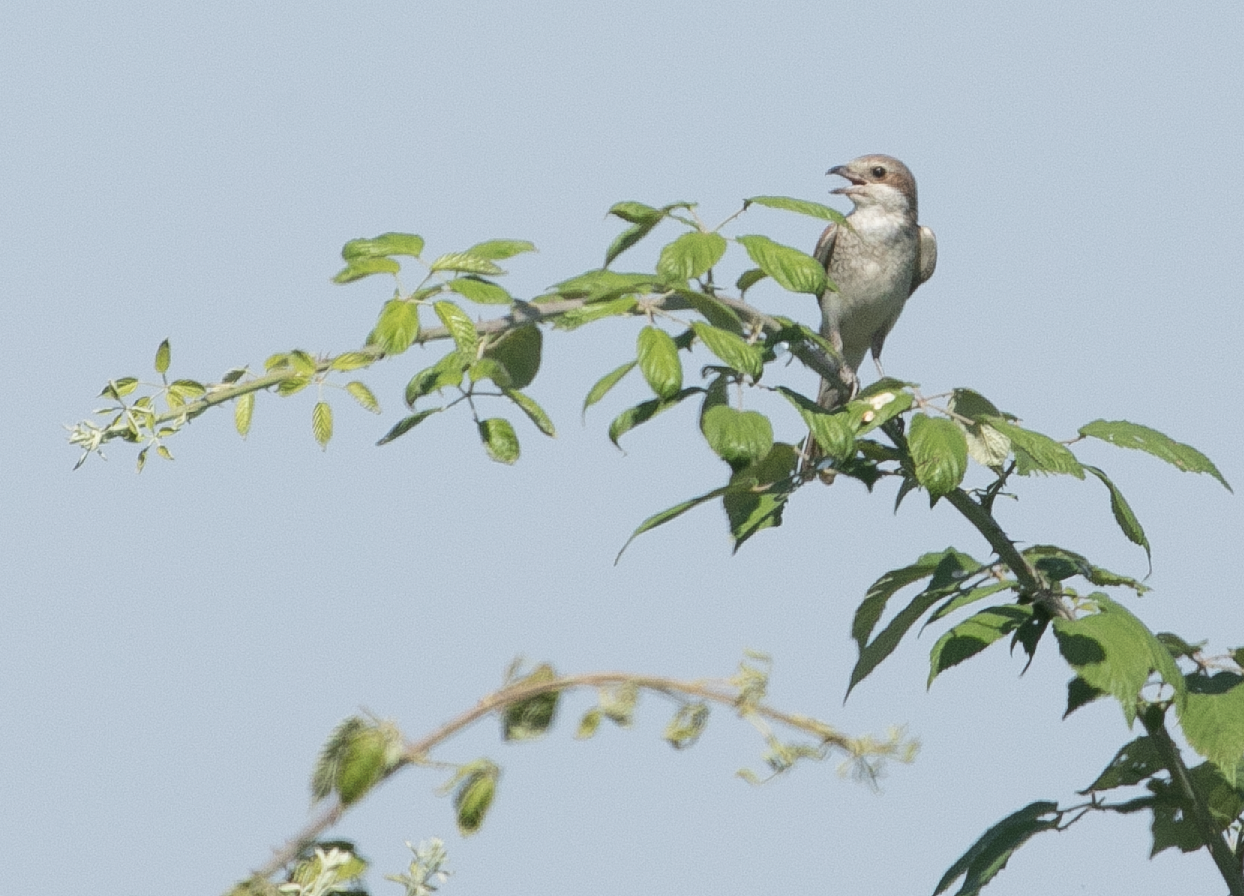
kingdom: Animalia
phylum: Chordata
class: Aves
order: Passeriformes
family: Laniidae
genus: Lanius
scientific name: Lanius collurio
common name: Red-backed shrike
